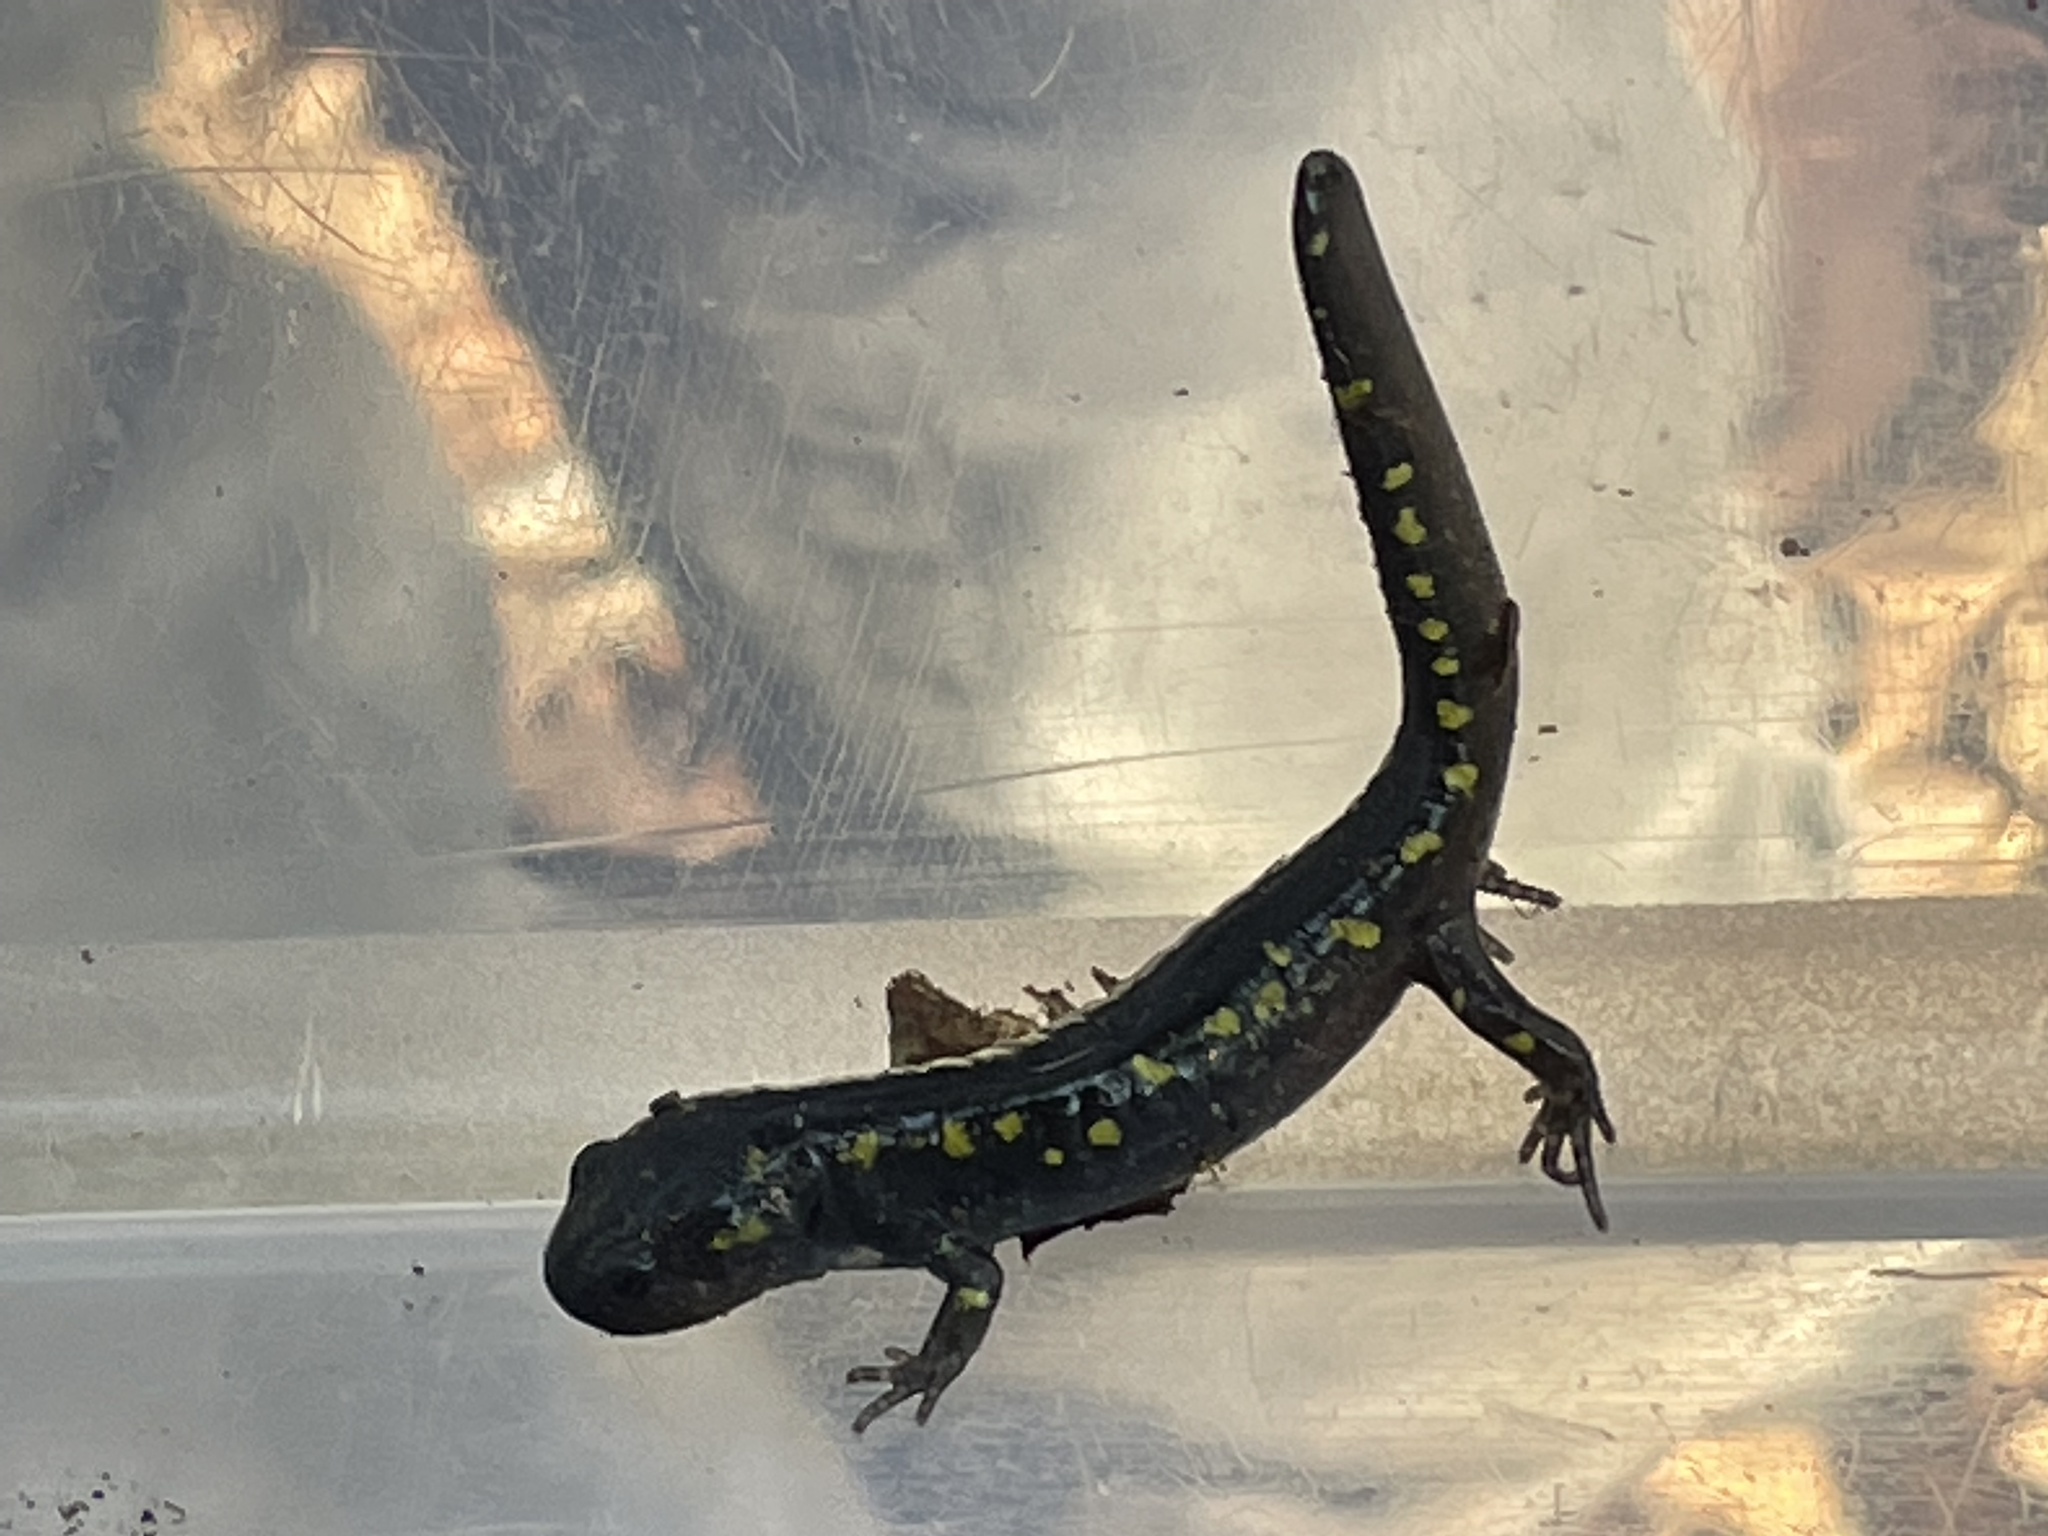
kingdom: Animalia
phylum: Chordata
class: Amphibia
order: Caudata
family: Ambystomatidae
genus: Ambystoma
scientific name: Ambystoma maculatum
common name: Spotted salamander
